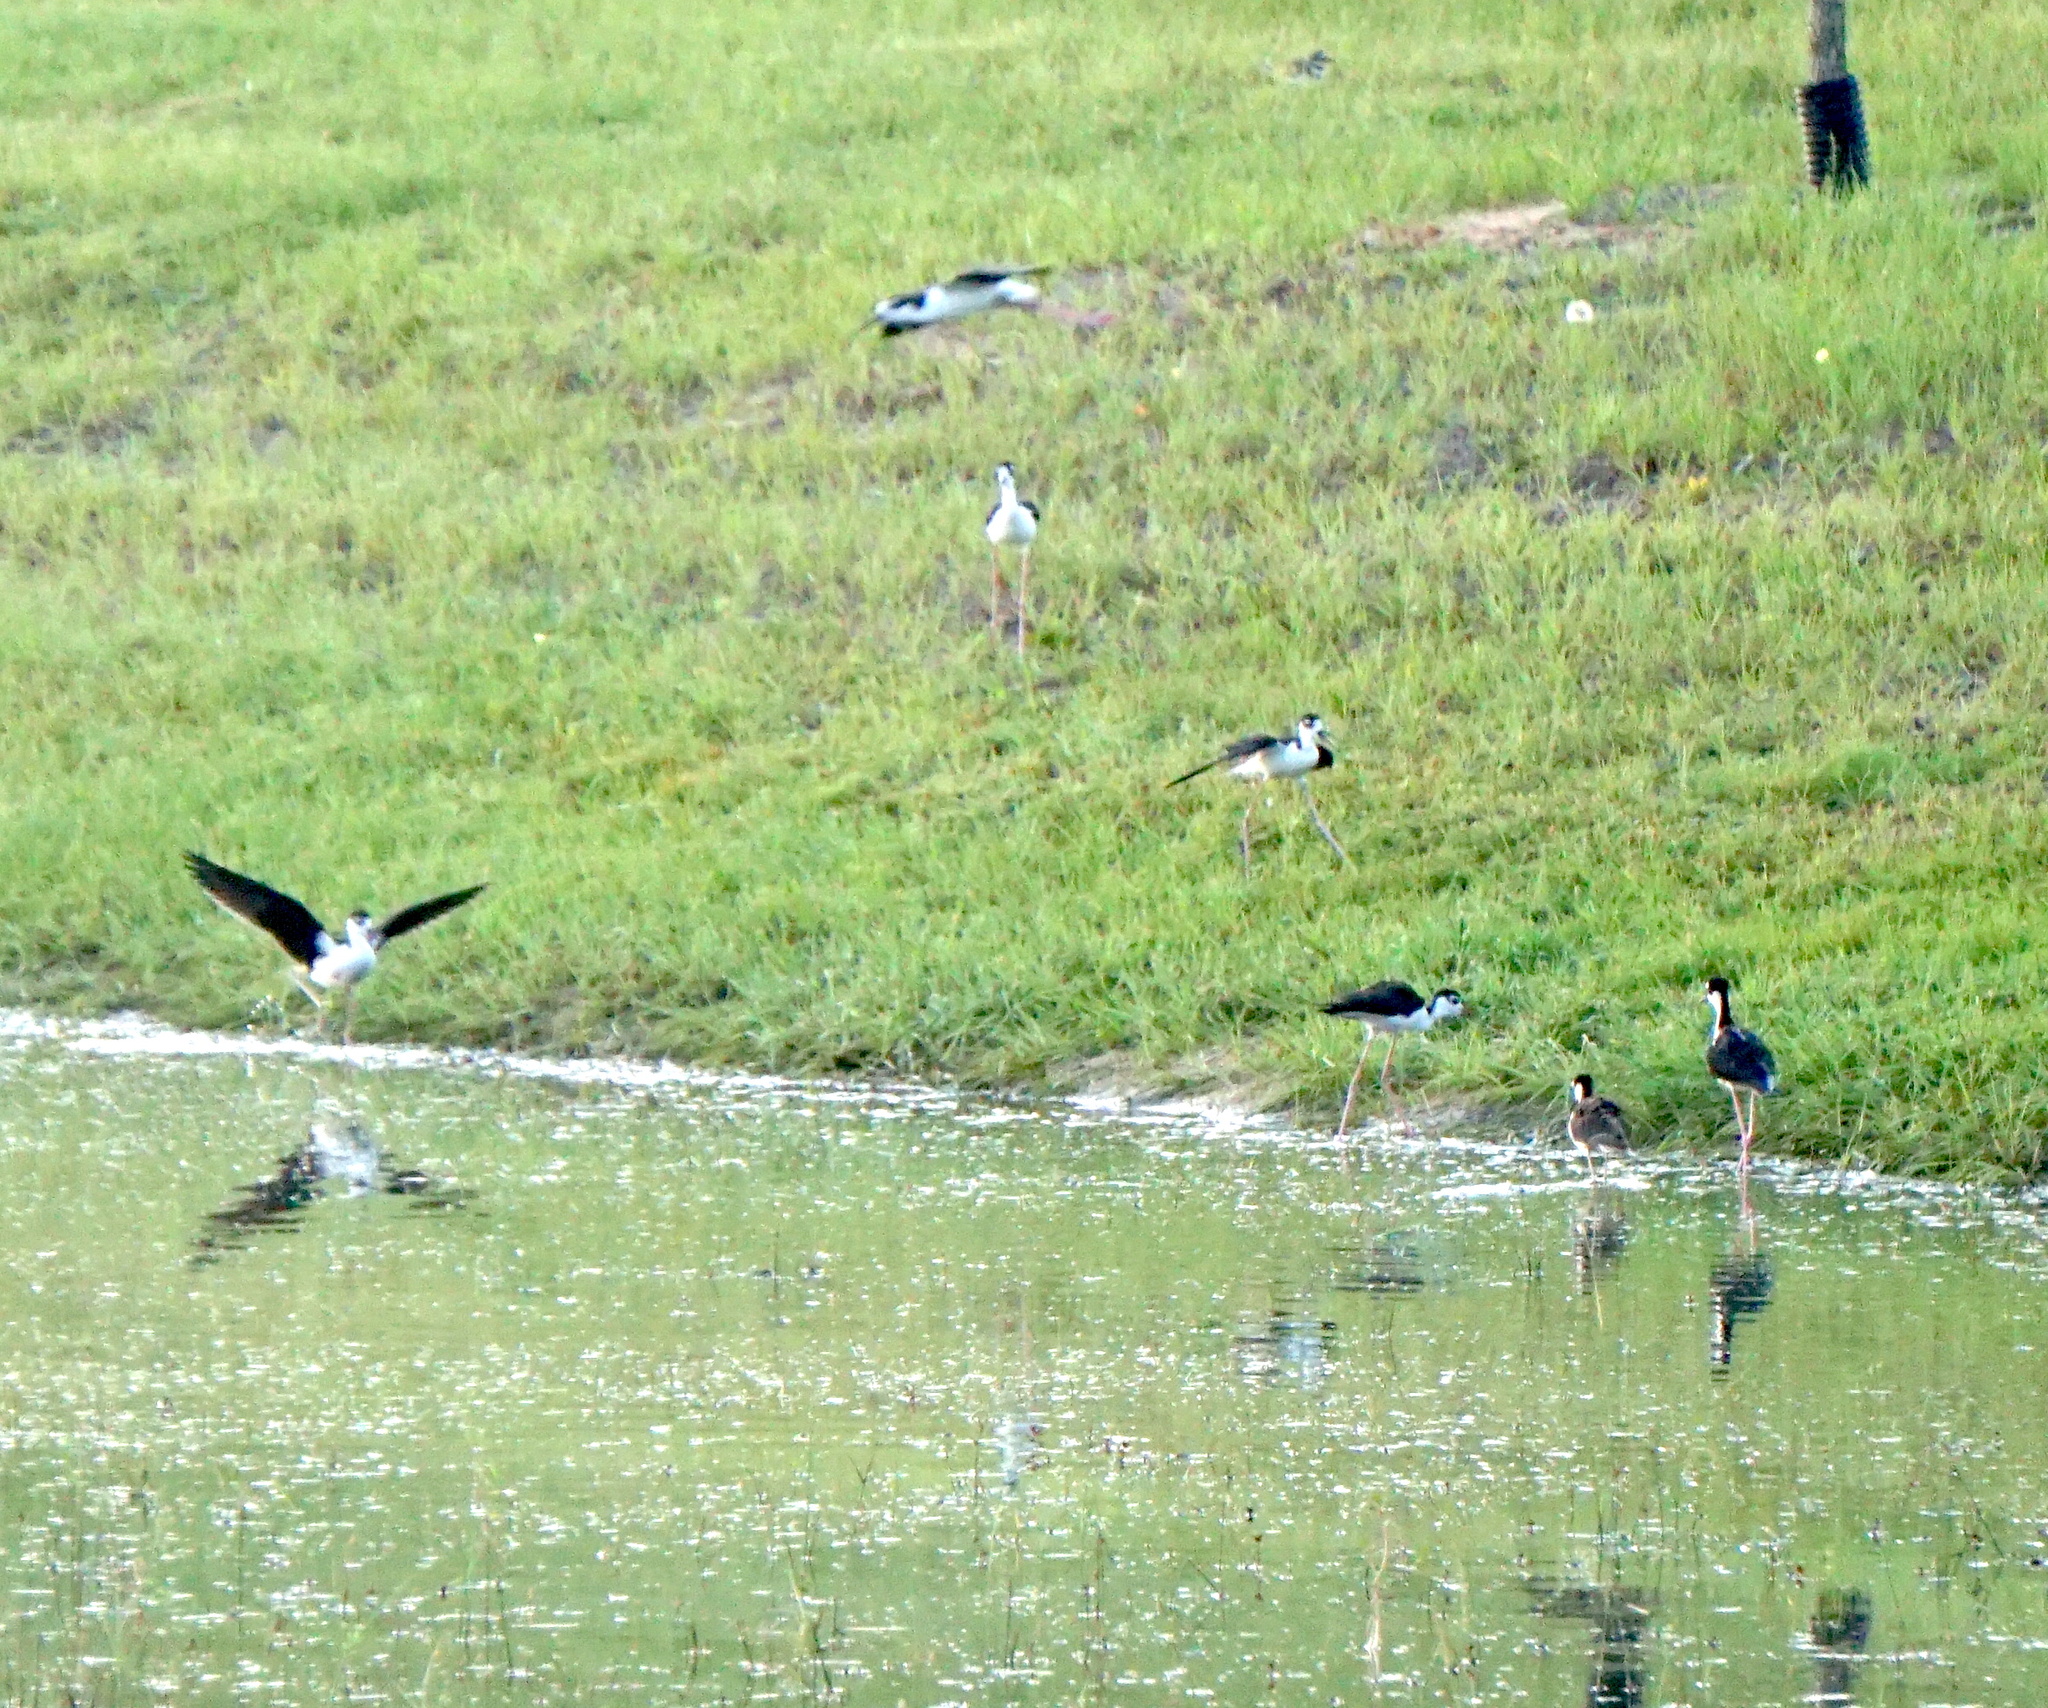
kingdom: Animalia
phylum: Chordata
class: Aves
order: Charadriiformes
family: Recurvirostridae
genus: Himantopus
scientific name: Himantopus mexicanus
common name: Black-necked stilt
